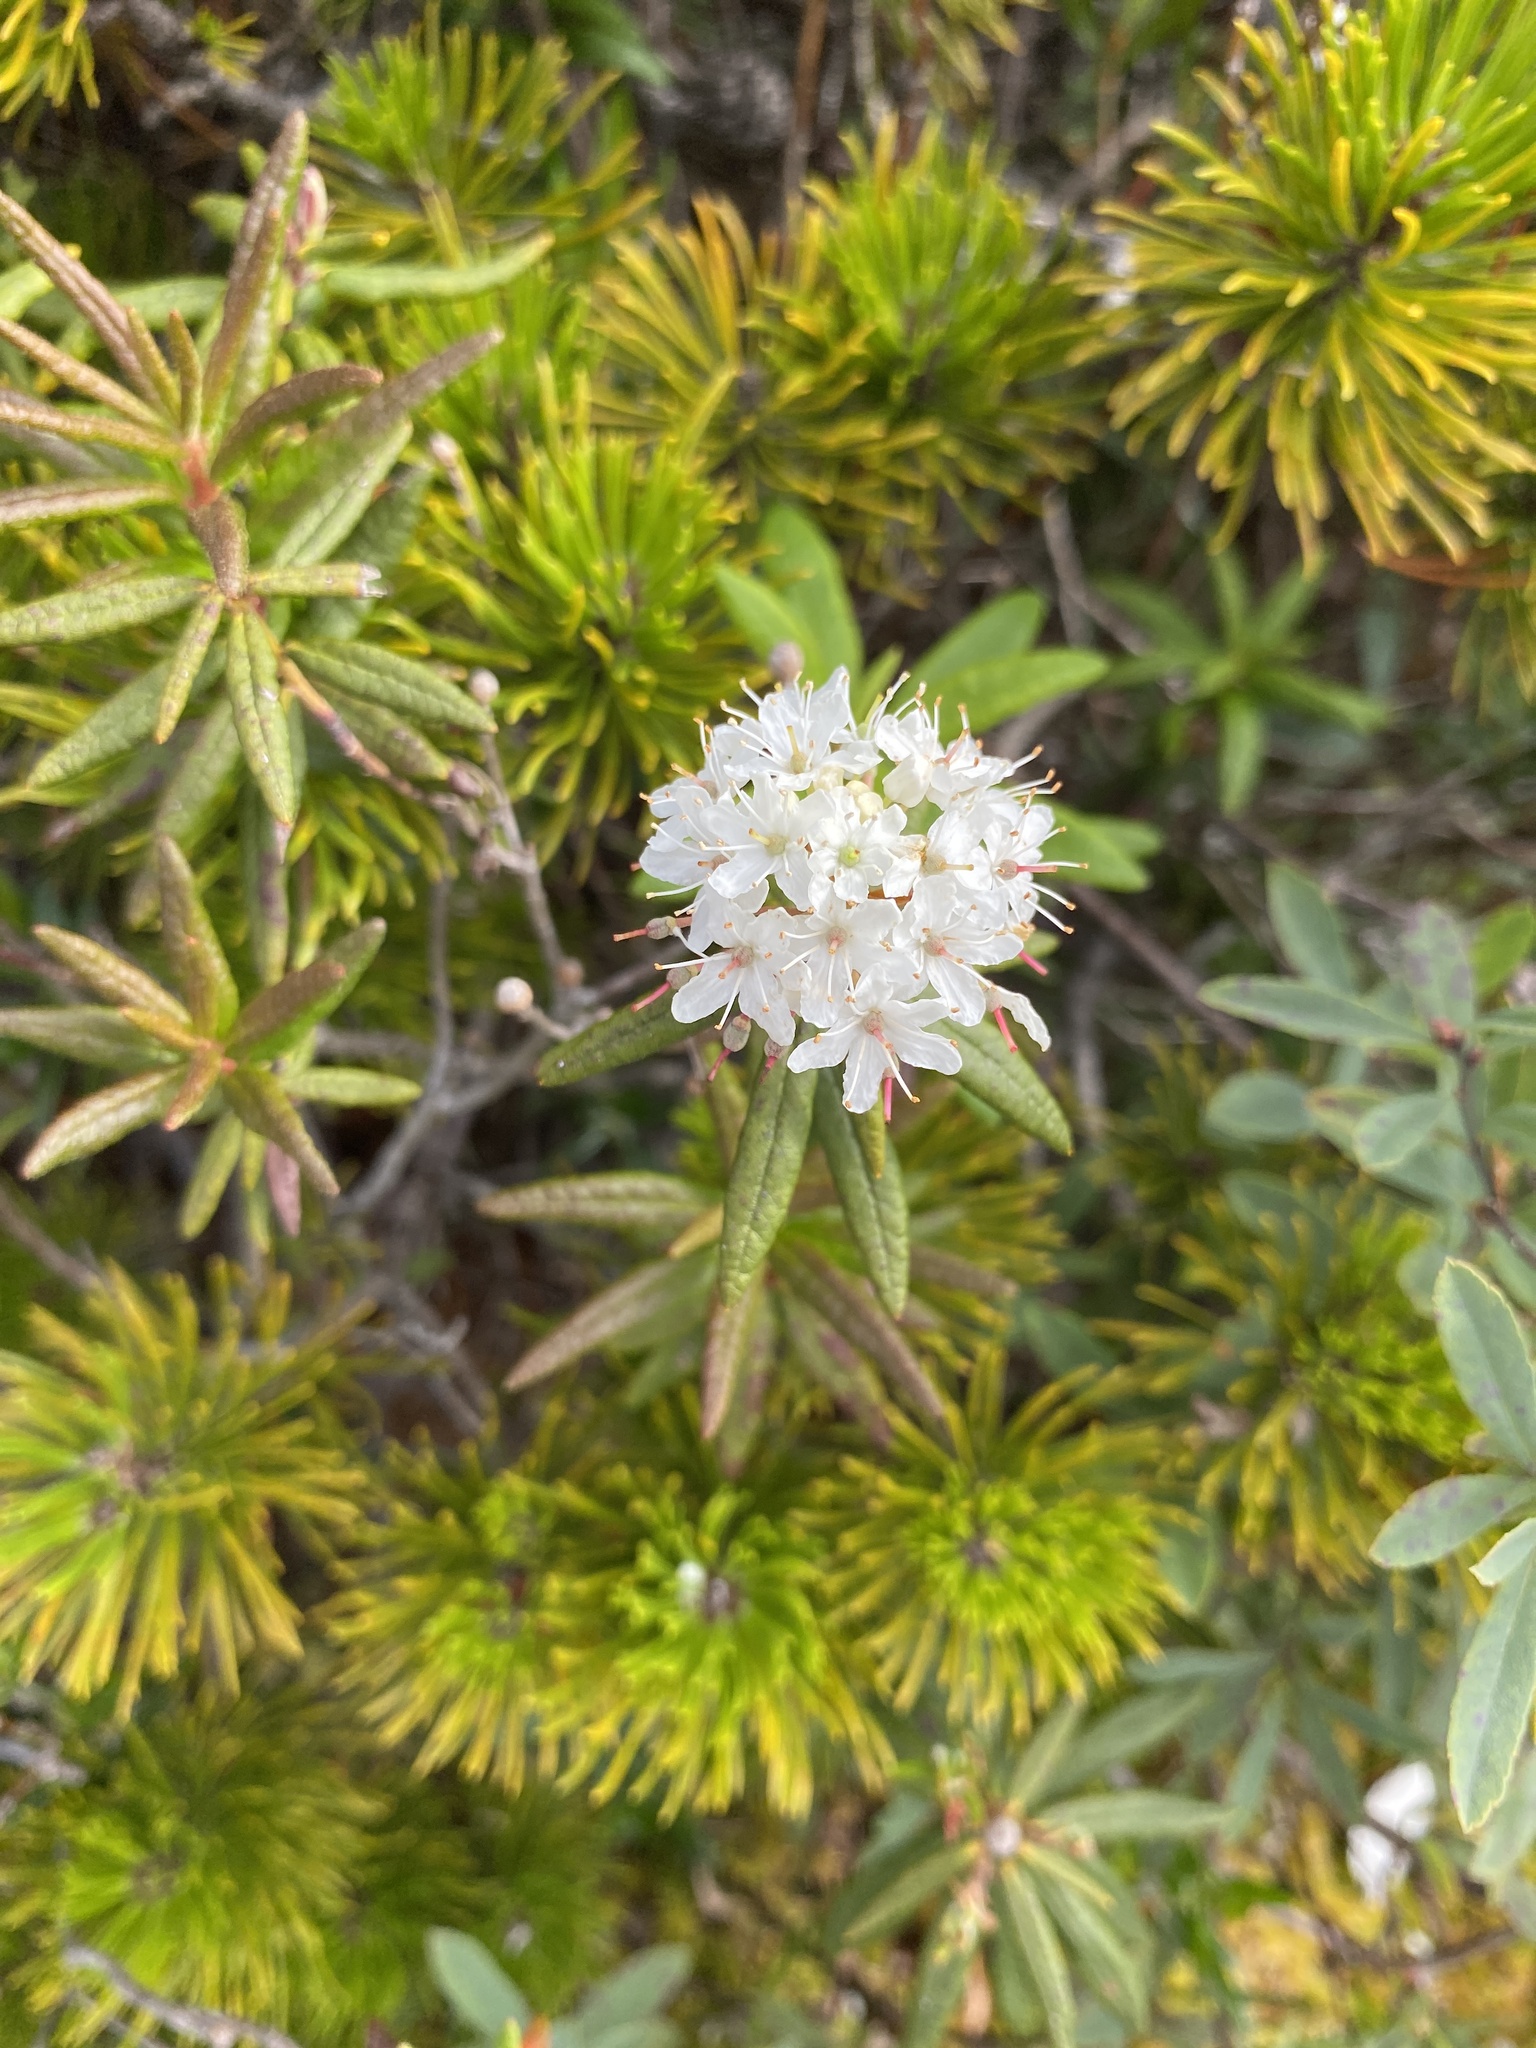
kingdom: Plantae
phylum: Tracheophyta
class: Magnoliopsida
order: Ericales
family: Ericaceae
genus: Rhododendron
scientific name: Rhododendron groenlandicum
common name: Bog labrador tea
